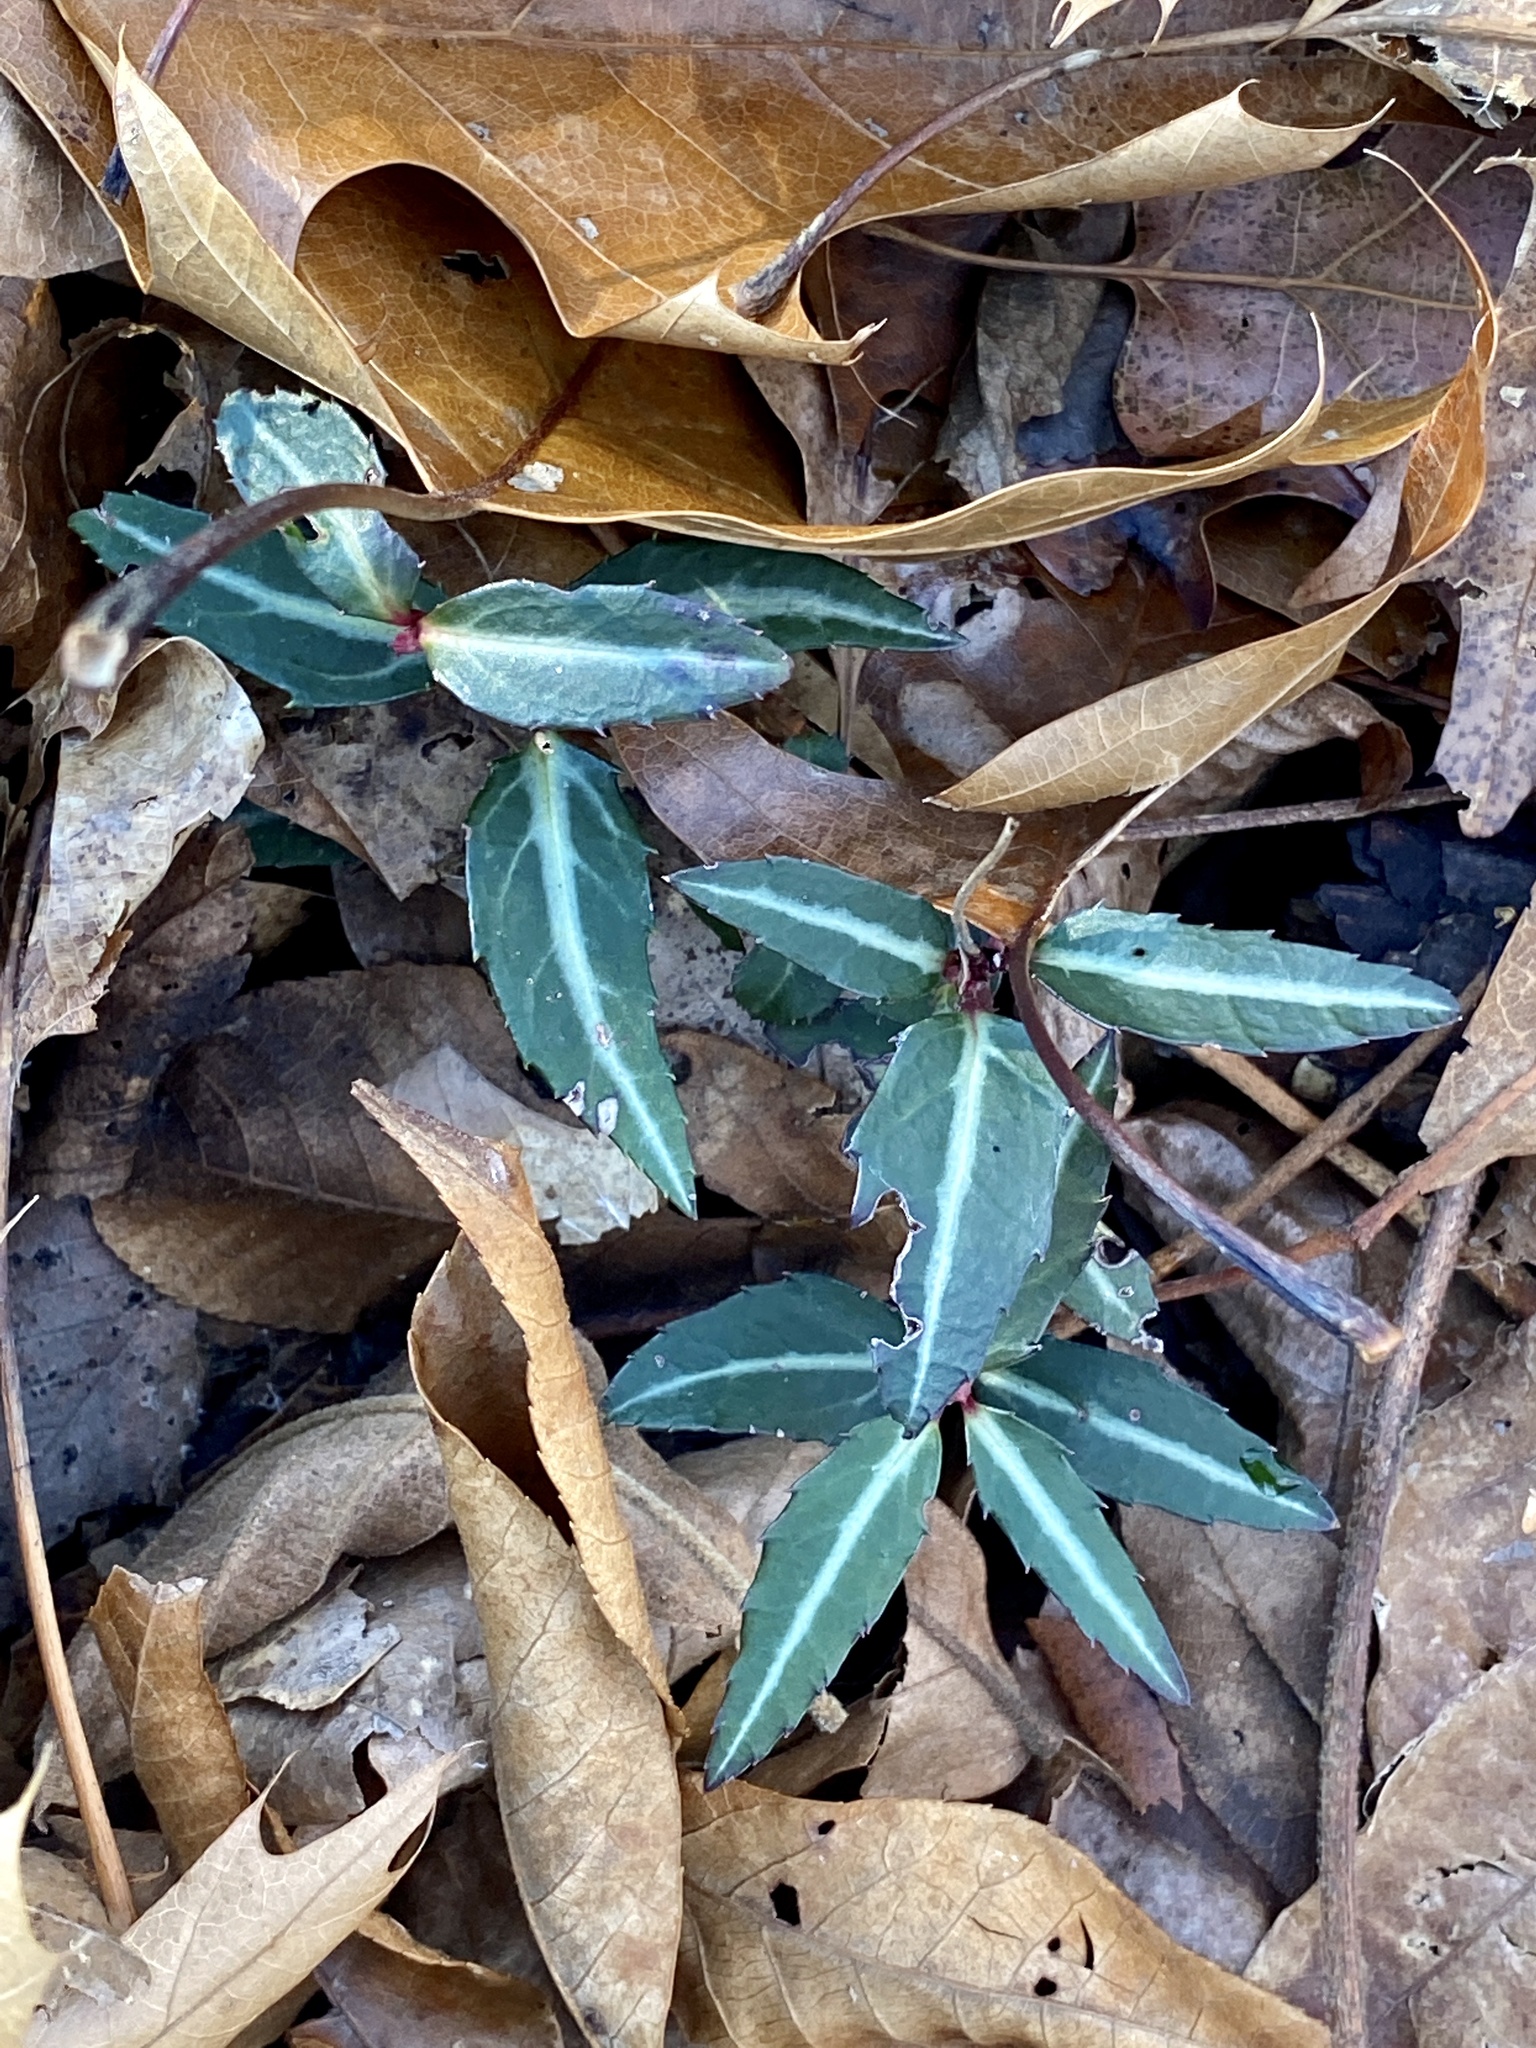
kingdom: Plantae
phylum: Tracheophyta
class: Magnoliopsida
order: Ericales
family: Ericaceae
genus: Chimaphila
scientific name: Chimaphila maculata
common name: Spotted pipsissewa
